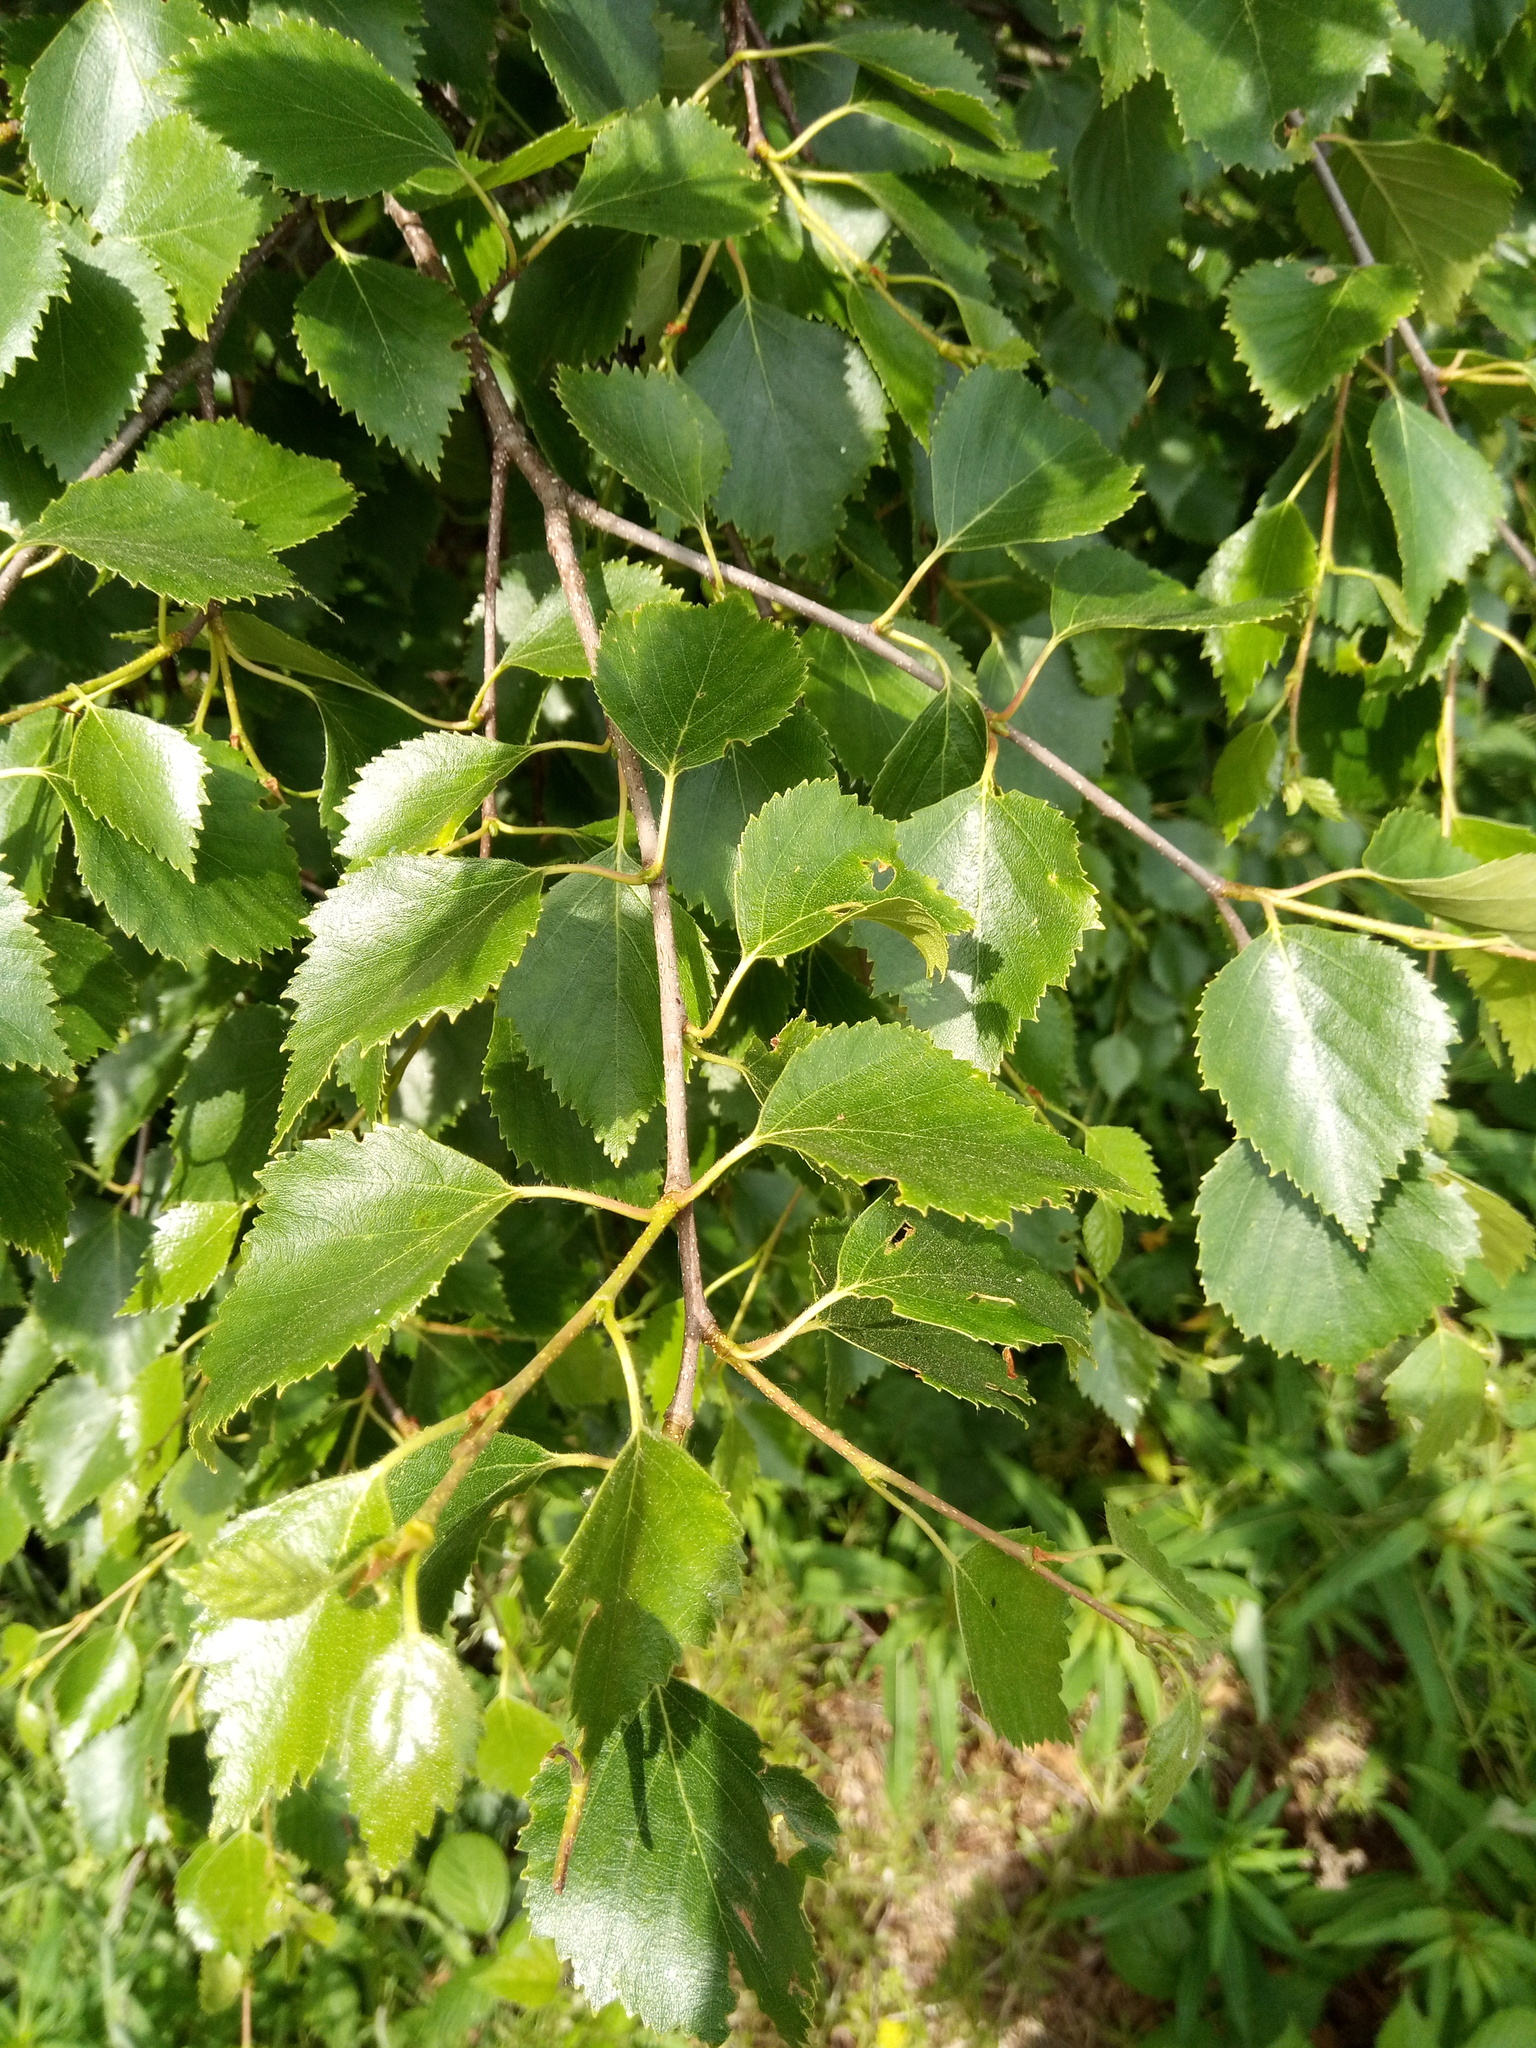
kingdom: Plantae
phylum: Tracheophyta
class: Magnoliopsida
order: Fagales
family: Betulaceae
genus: Betula
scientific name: Betula pendula
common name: Silver birch
